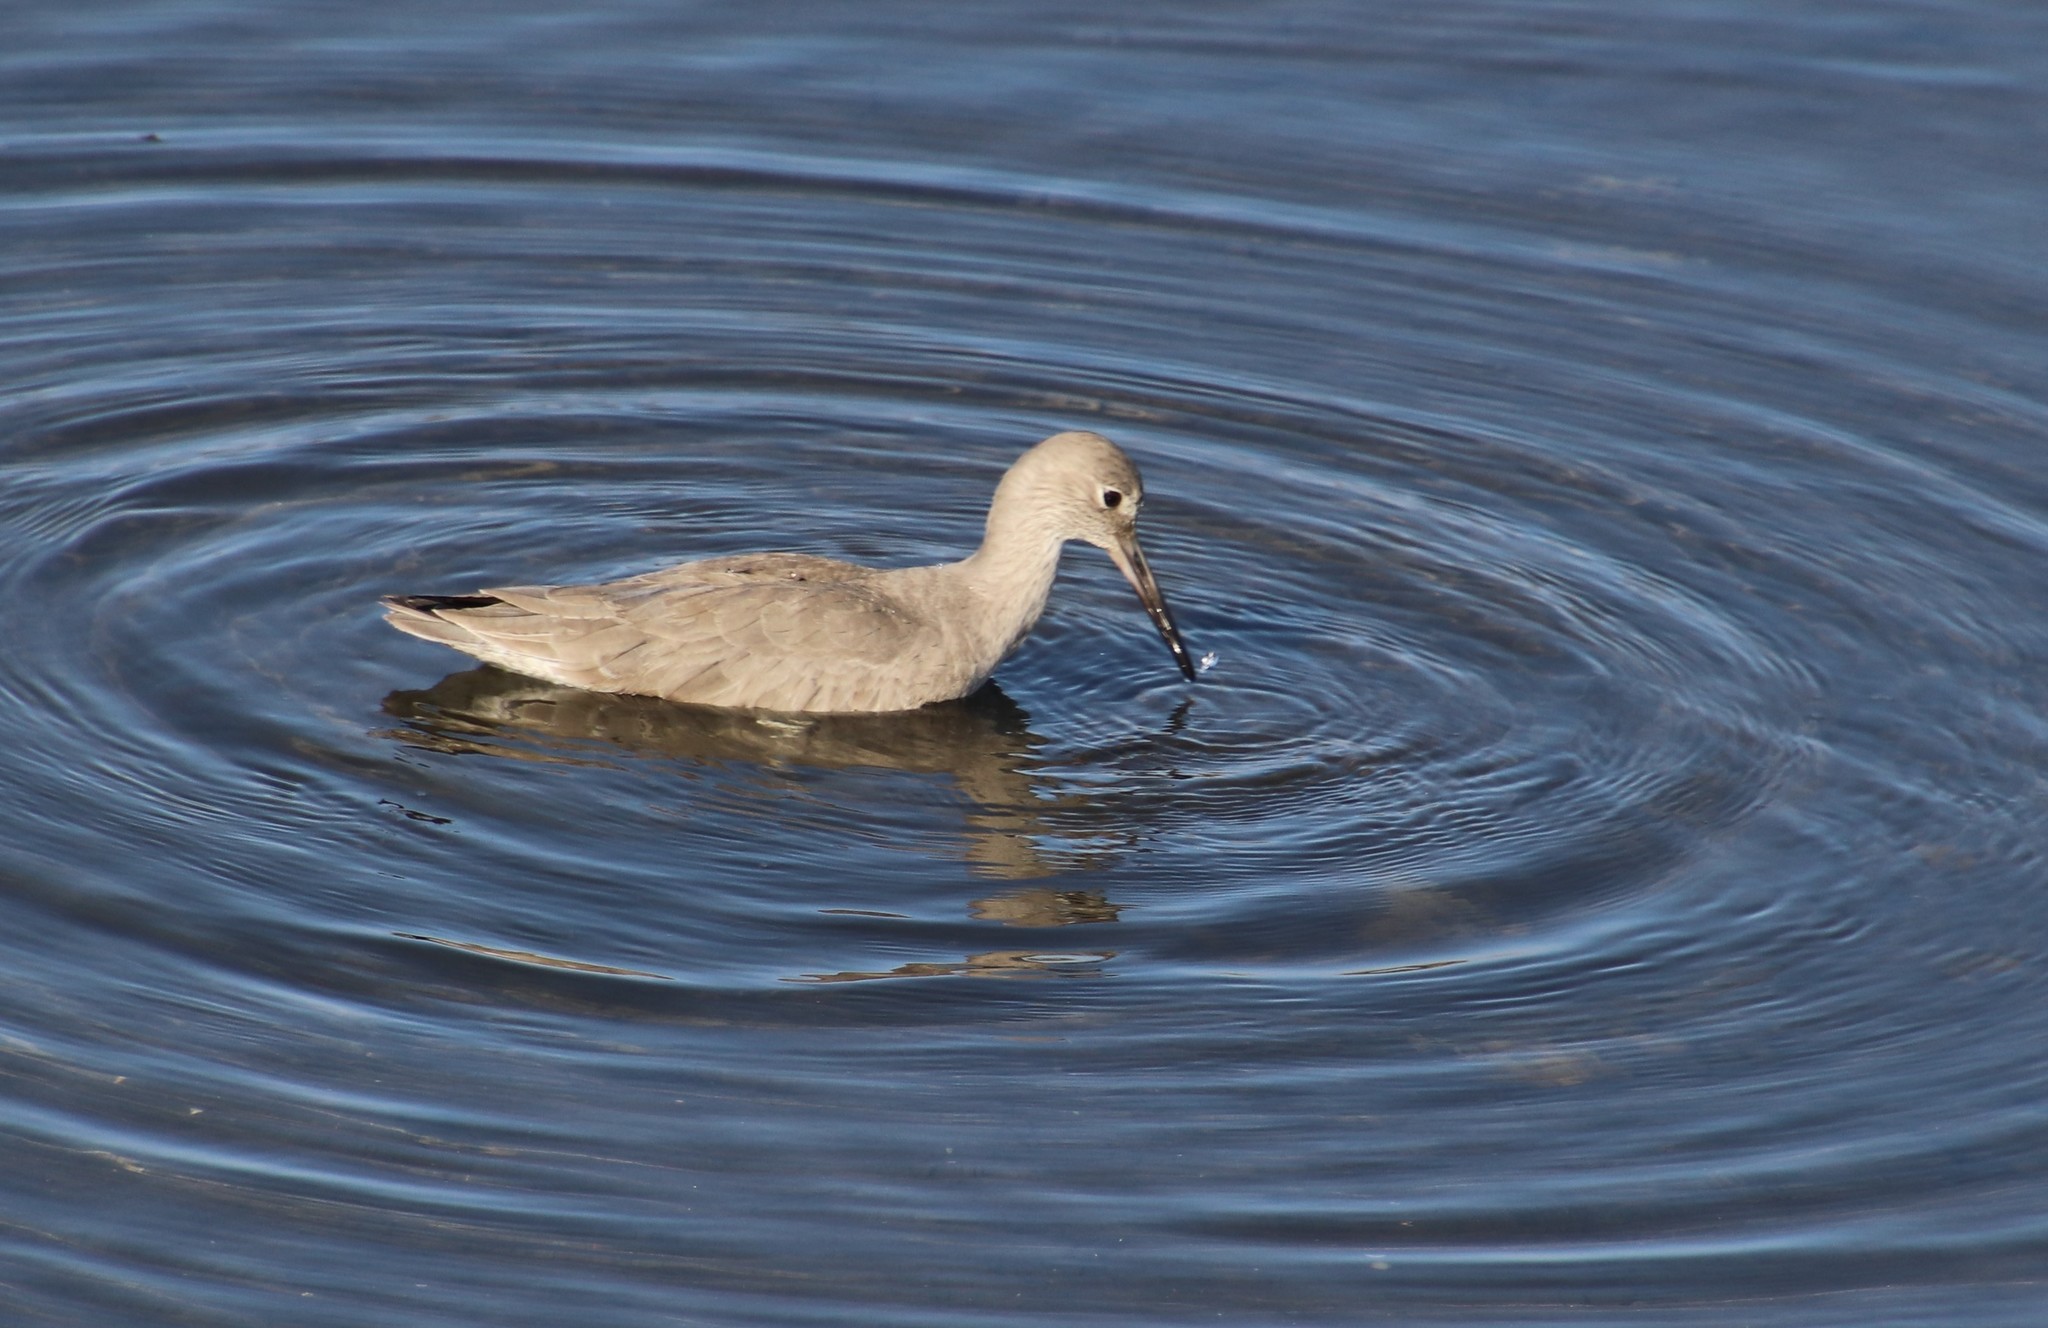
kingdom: Animalia
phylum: Chordata
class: Aves
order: Charadriiformes
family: Scolopacidae
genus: Tringa
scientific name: Tringa semipalmata
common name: Willet
